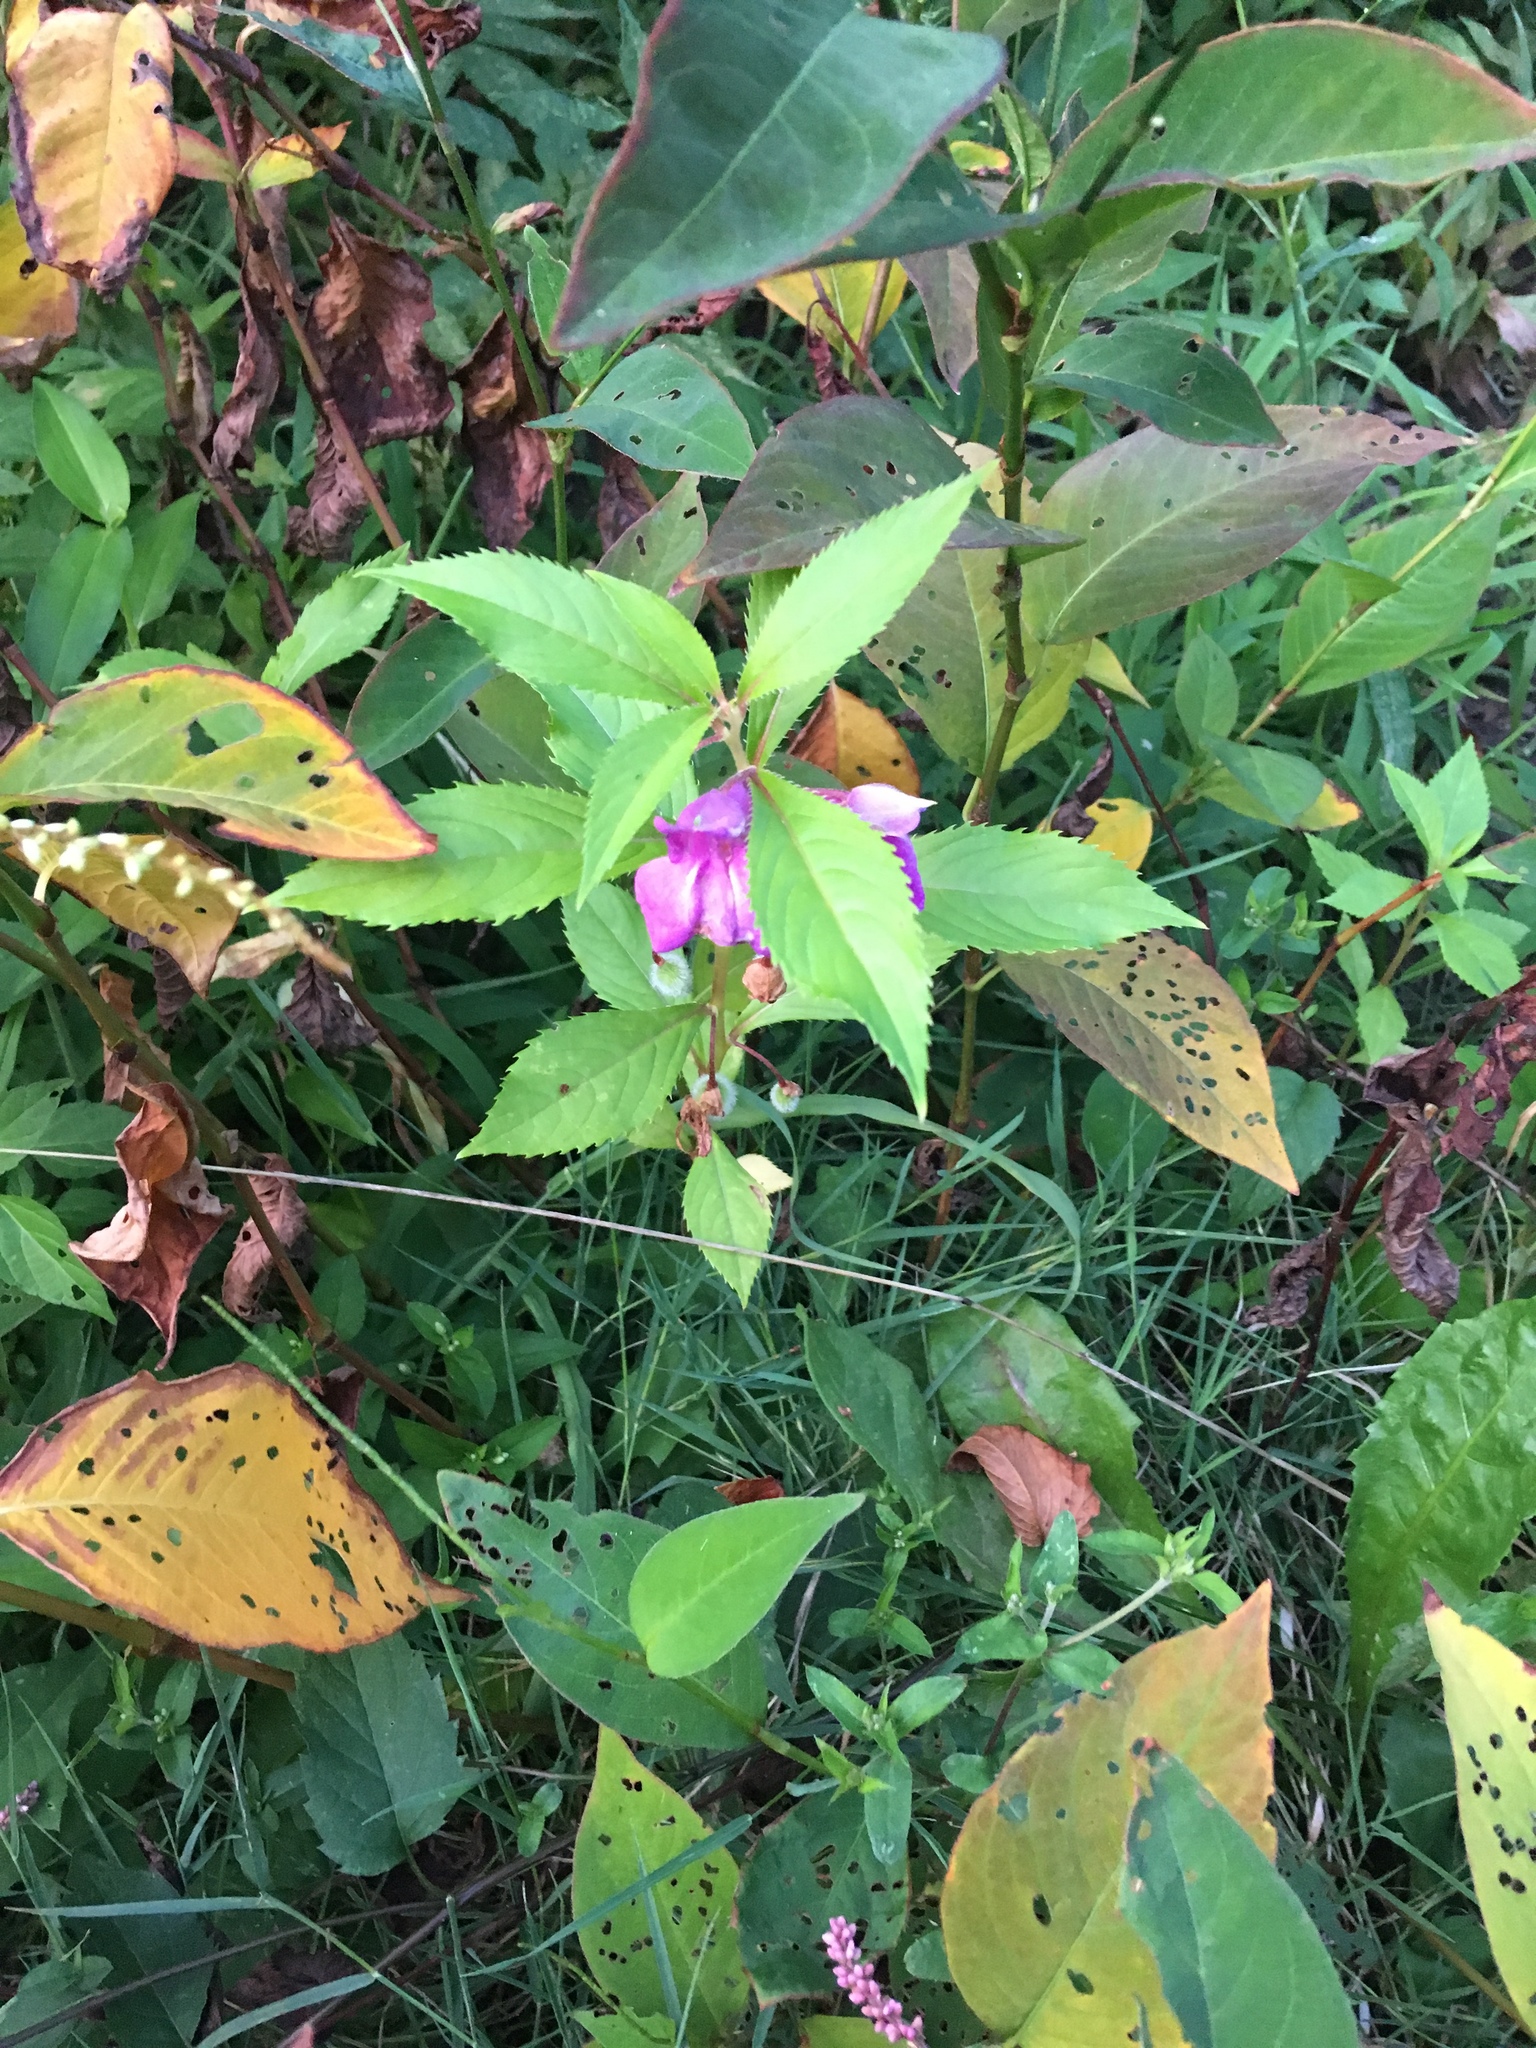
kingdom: Plantae
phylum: Tracheophyta
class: Magnoliopsida
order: Ericales
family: Balsaminaceae
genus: Impatiens
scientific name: Impatiens balsamina
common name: Balsam
